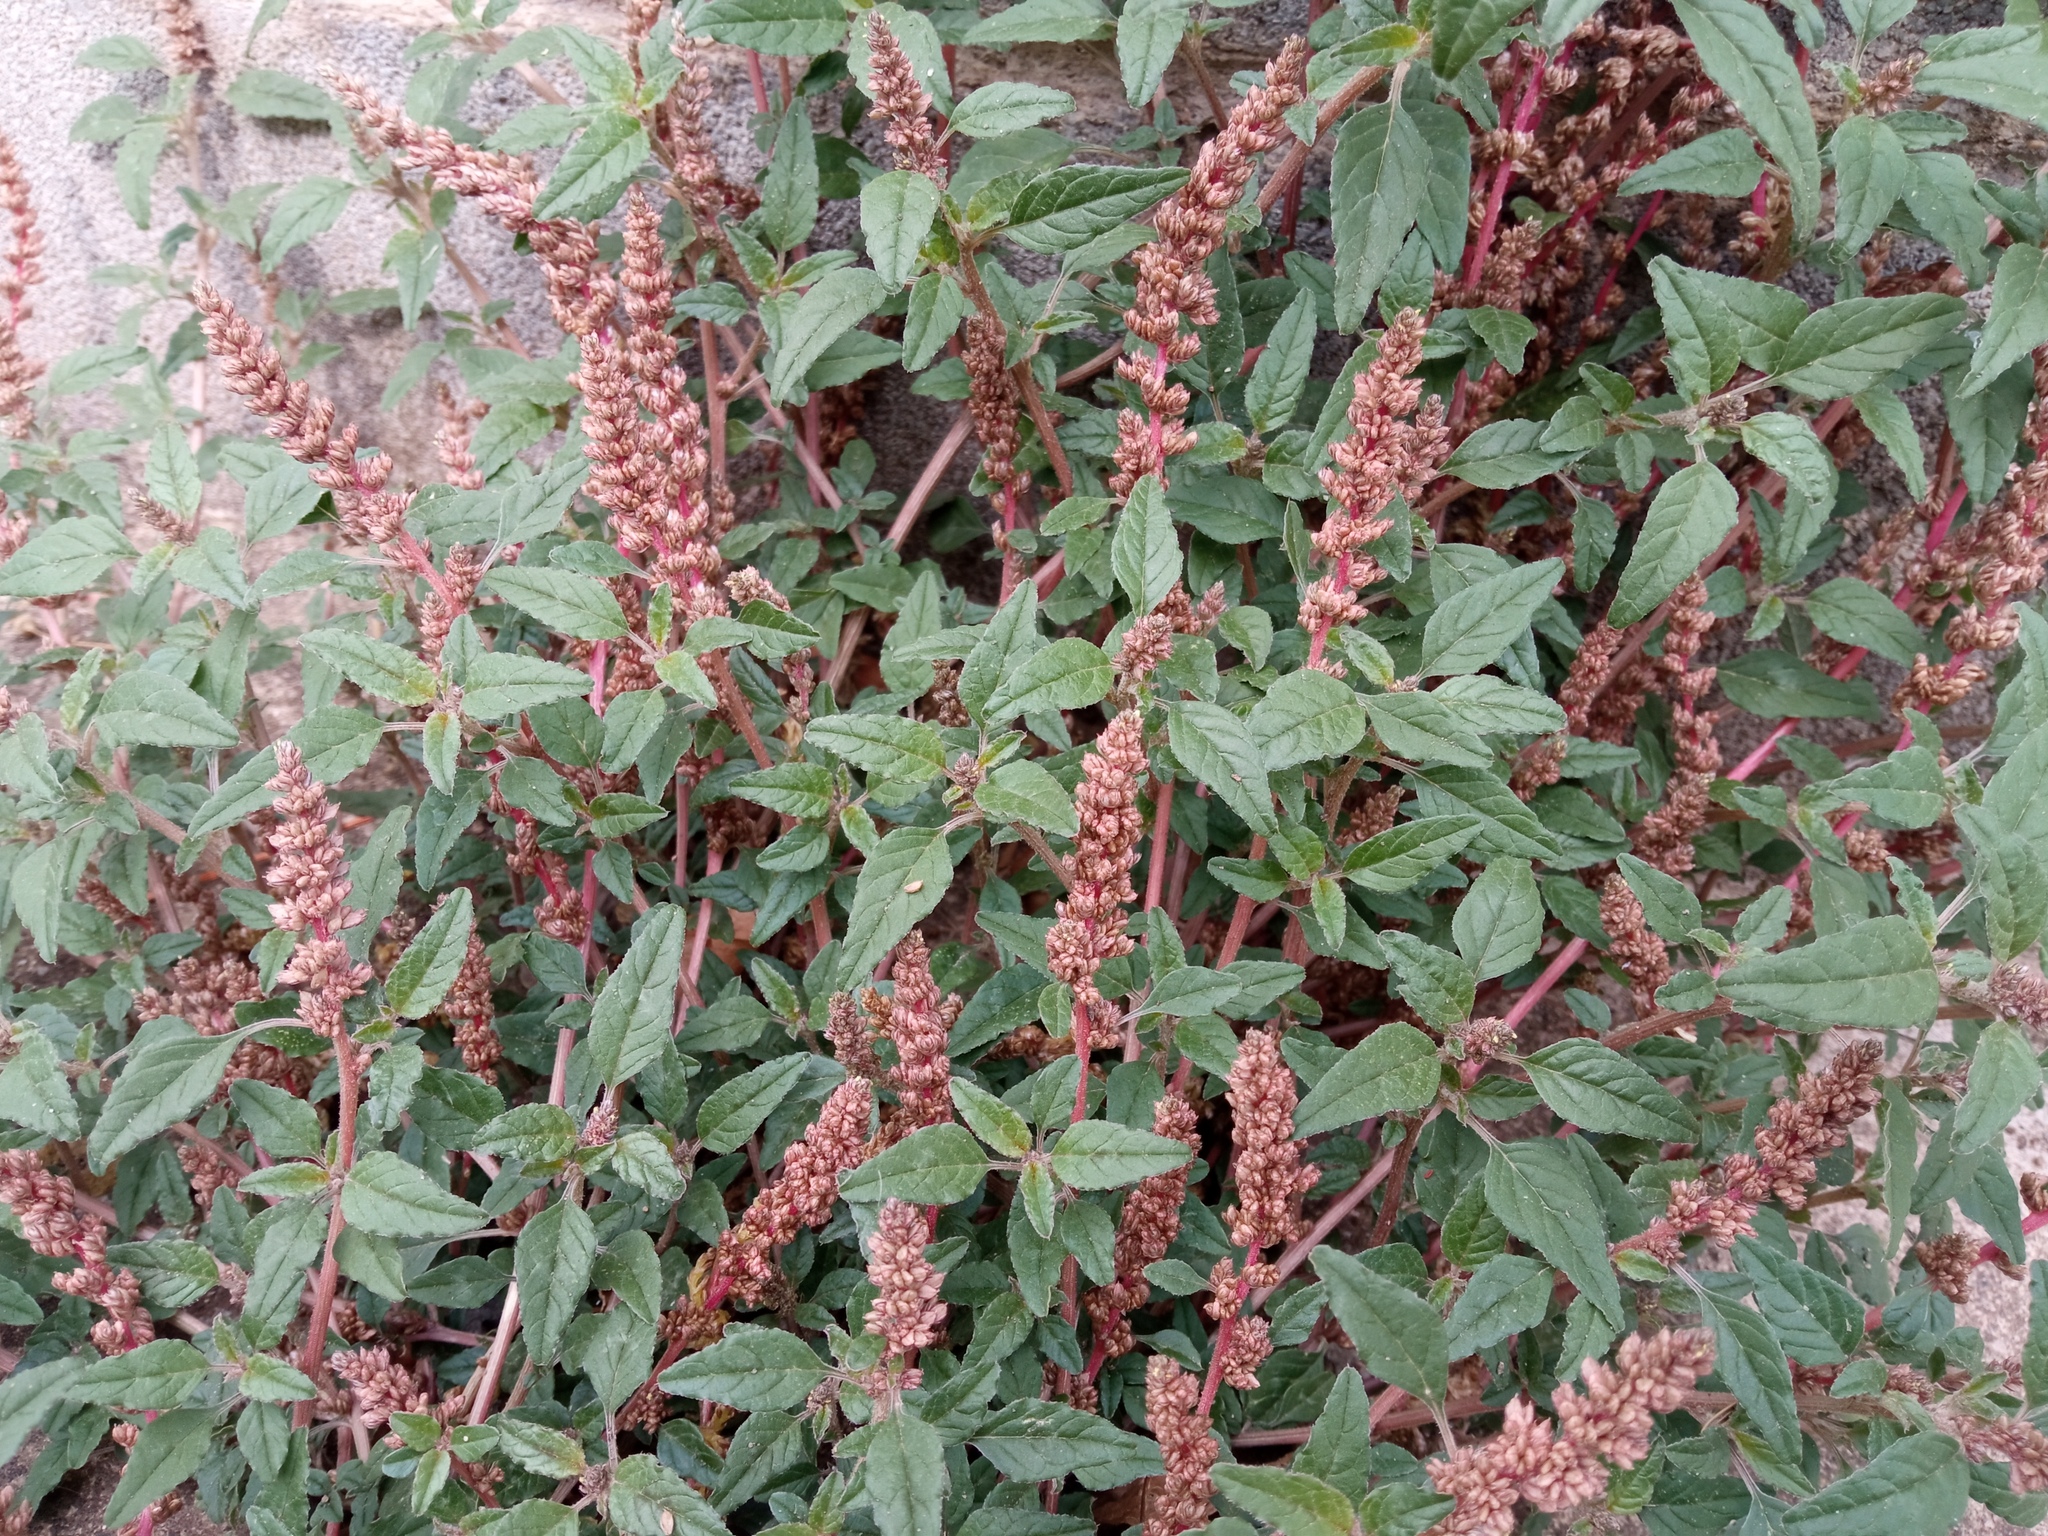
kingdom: Plantae
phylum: Tracheophyta
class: Magnoliopsida
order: Caryophyllales
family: Amaranthaceae
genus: Amaranthus
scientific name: Amaranthus deflexus
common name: Perennial pigweed
